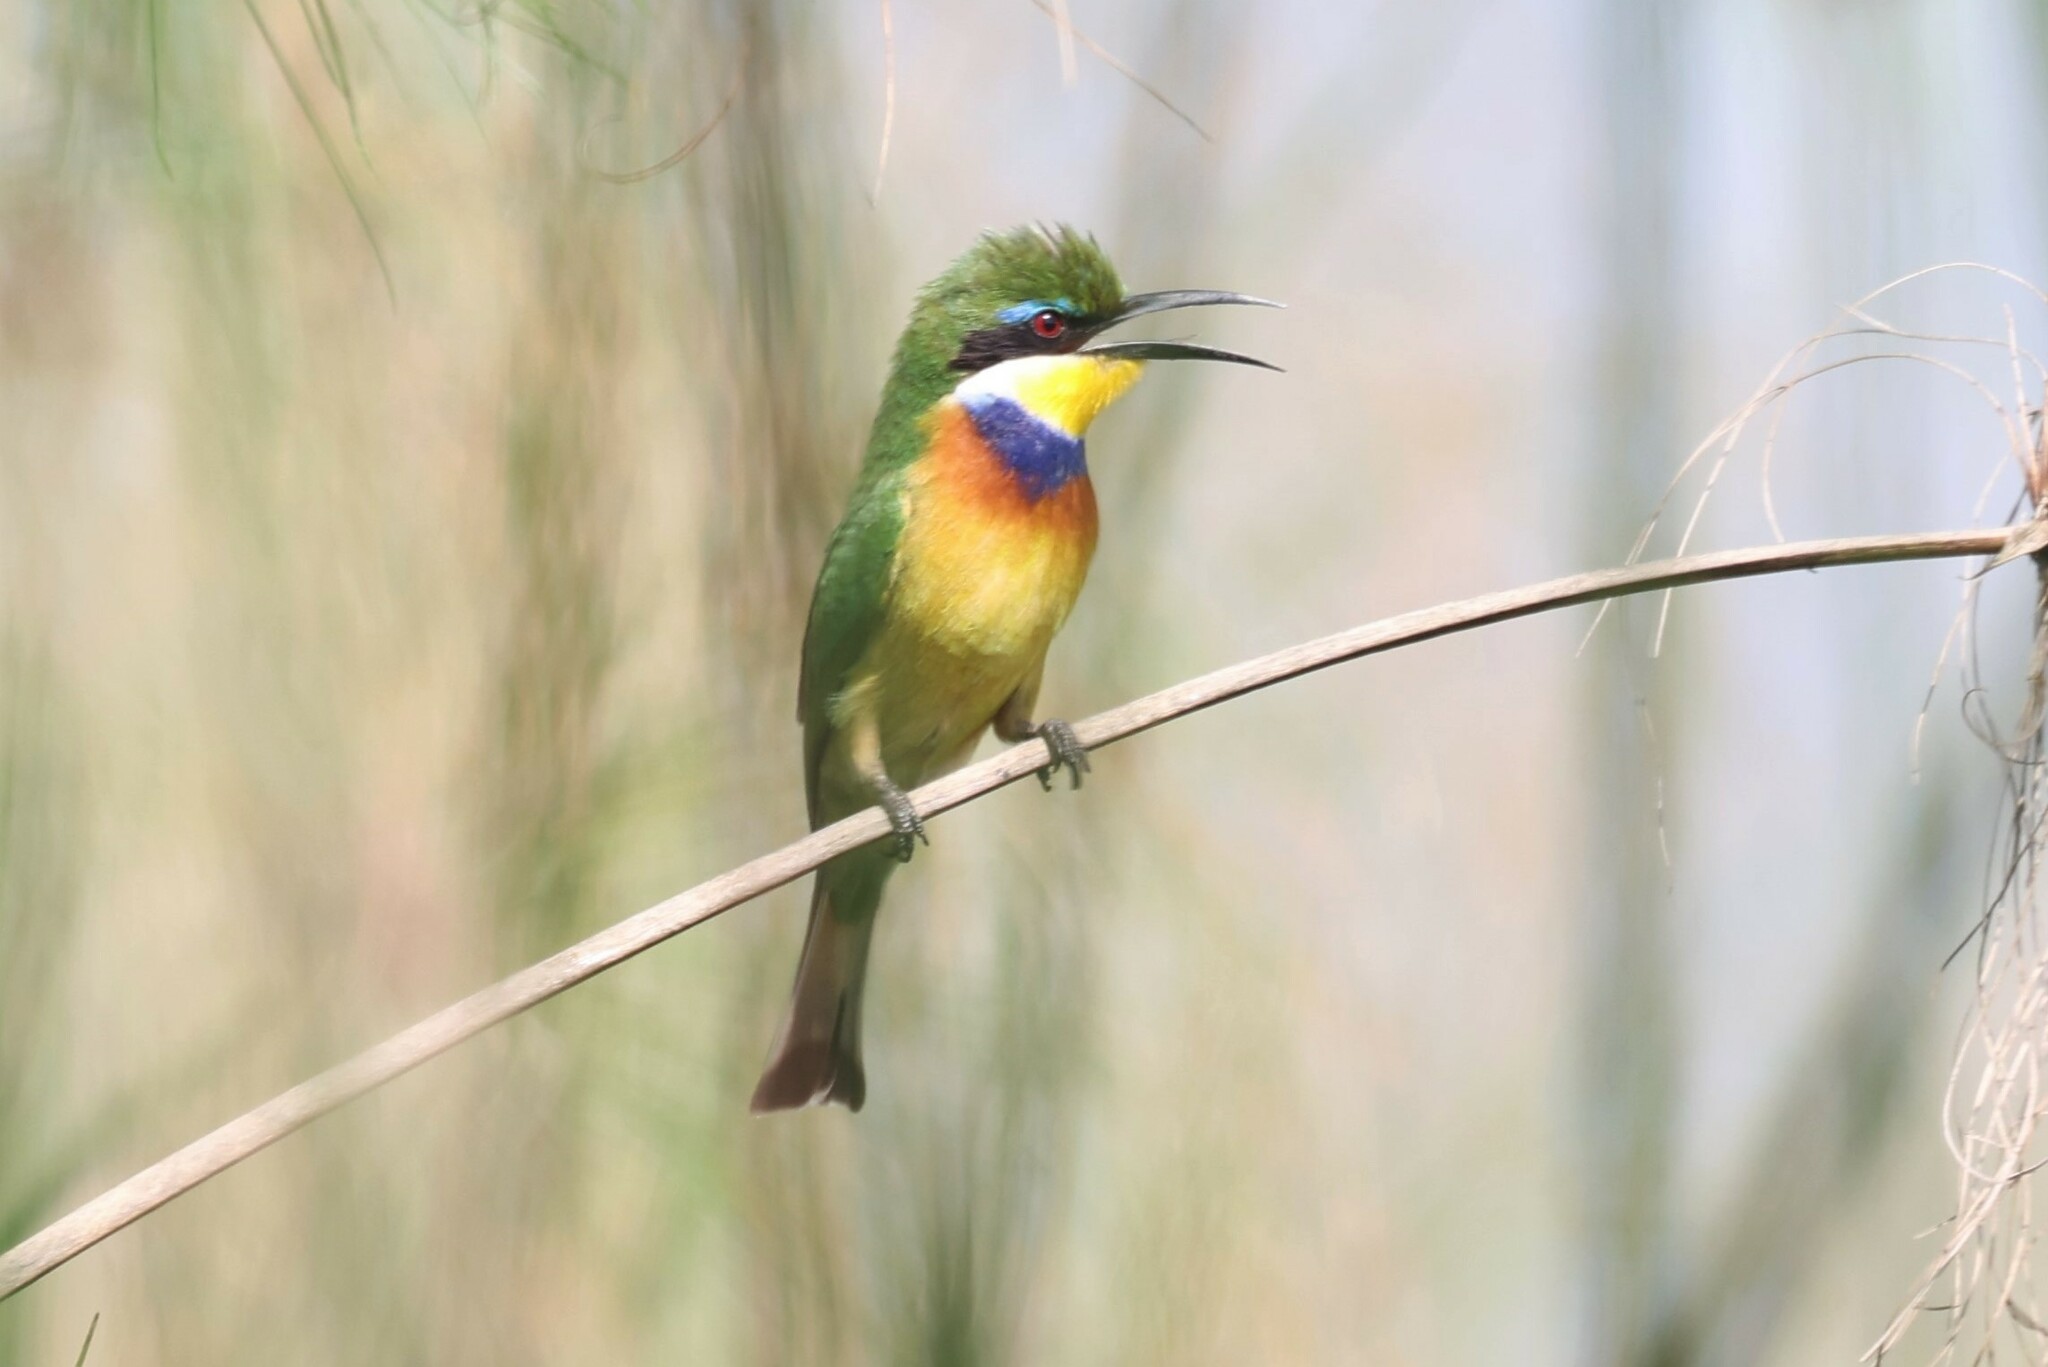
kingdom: Animalia
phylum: Chordata
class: Aves
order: Coraciiformes
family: Meropidae
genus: Merops
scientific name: Merops variegatus
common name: Blue-breasted bee-eater
